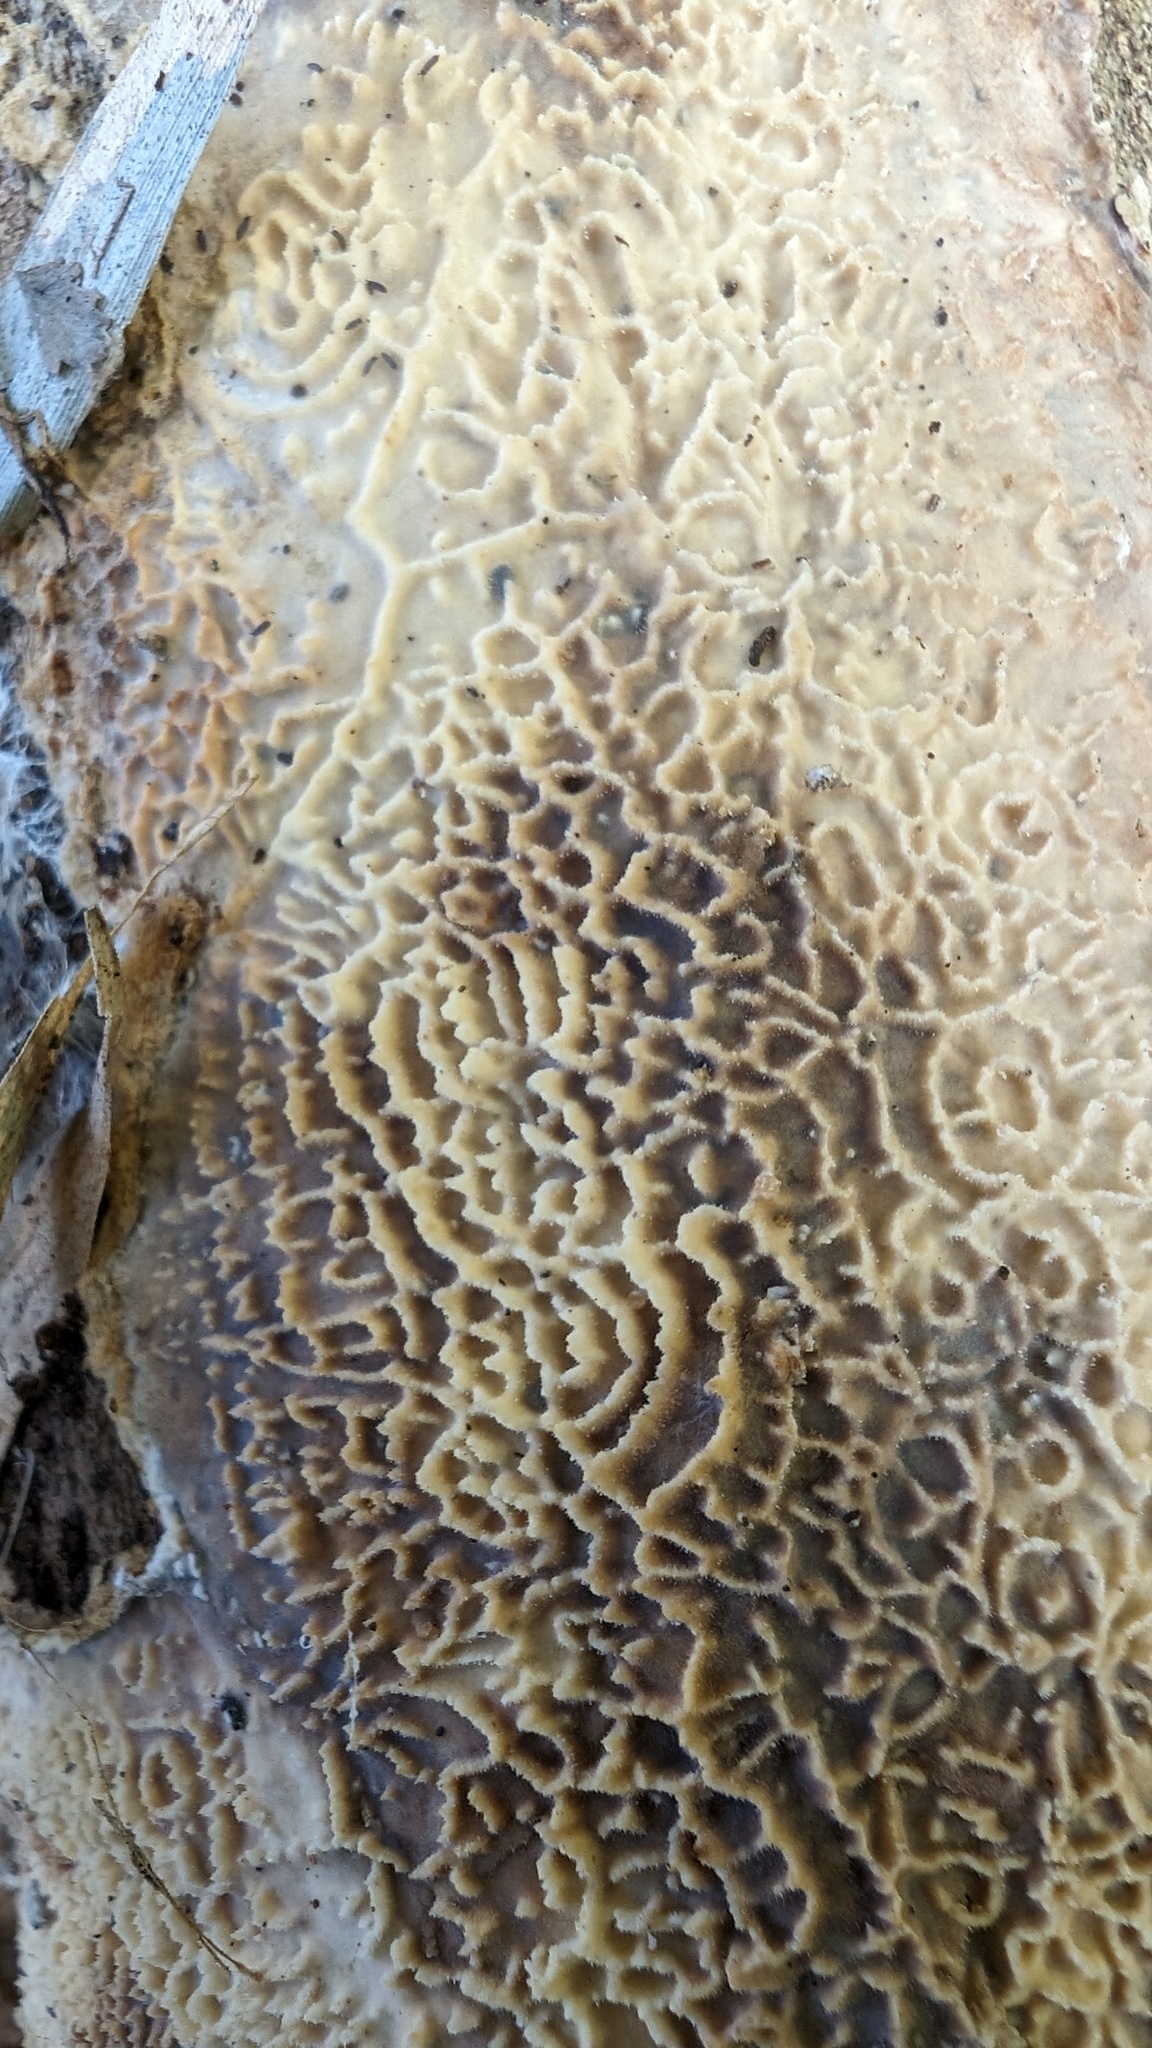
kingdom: Fungi
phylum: Basidiomycota
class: Agaricomycetes
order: Polyporales
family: Polyporaceae
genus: Lopharia
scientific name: Lopharia cinerascens
